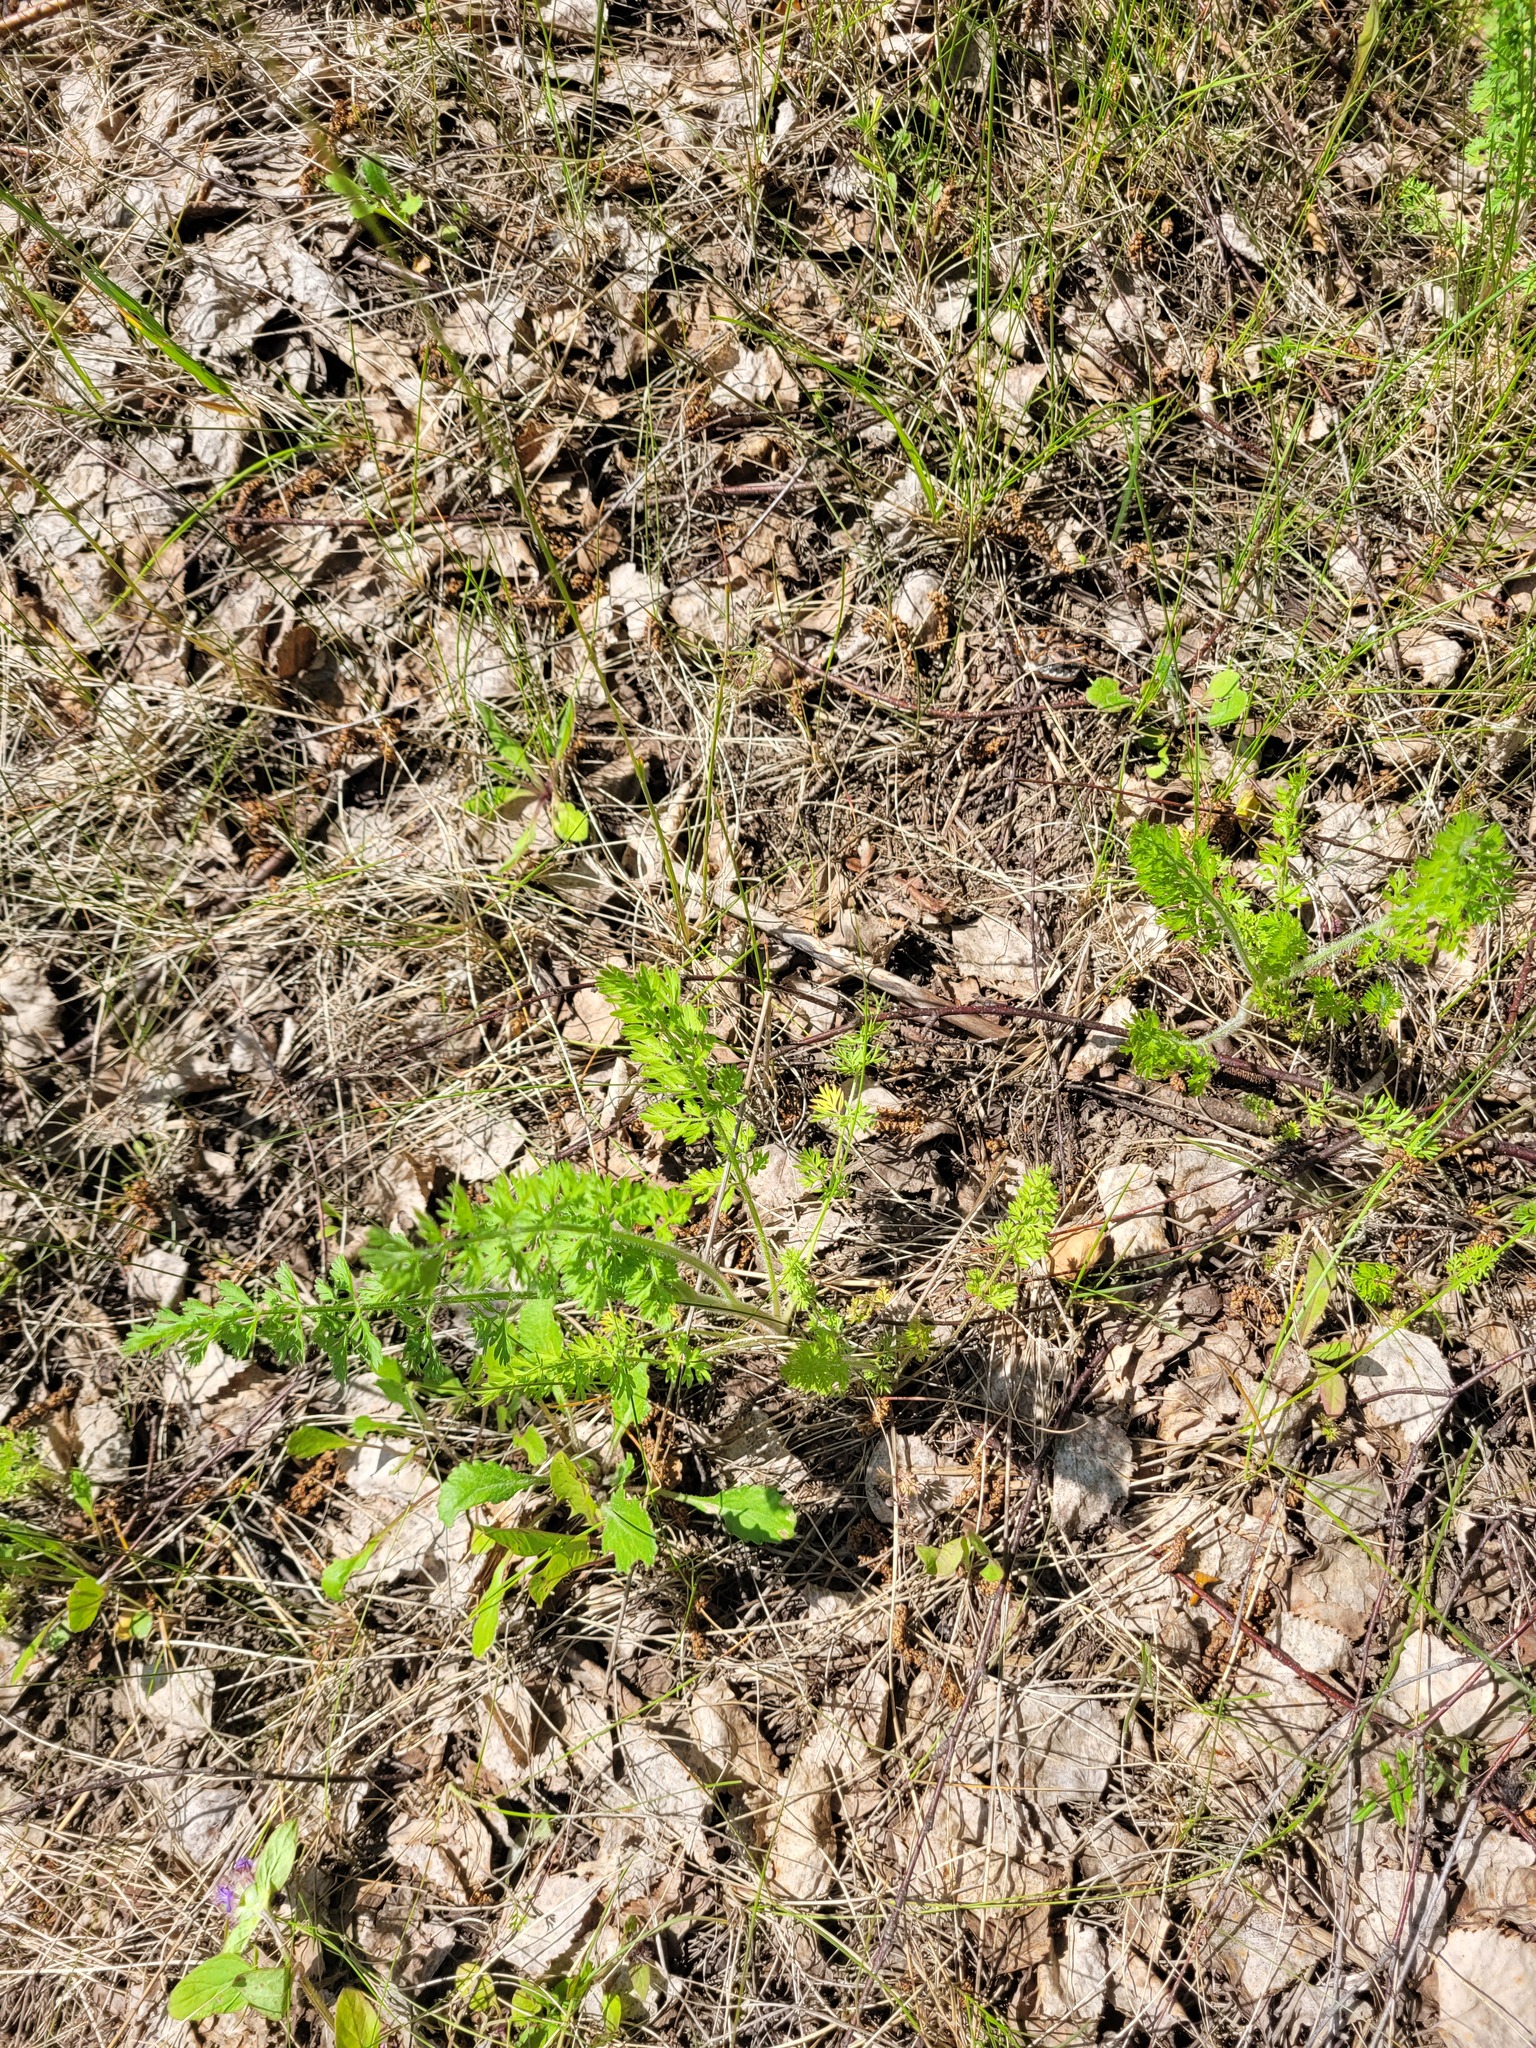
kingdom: Plantae
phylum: Tracheophyta
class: Magnoliopsida
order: Apiales
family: Apiaceae
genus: Daucus
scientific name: Daucus carota
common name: Wild carrot
